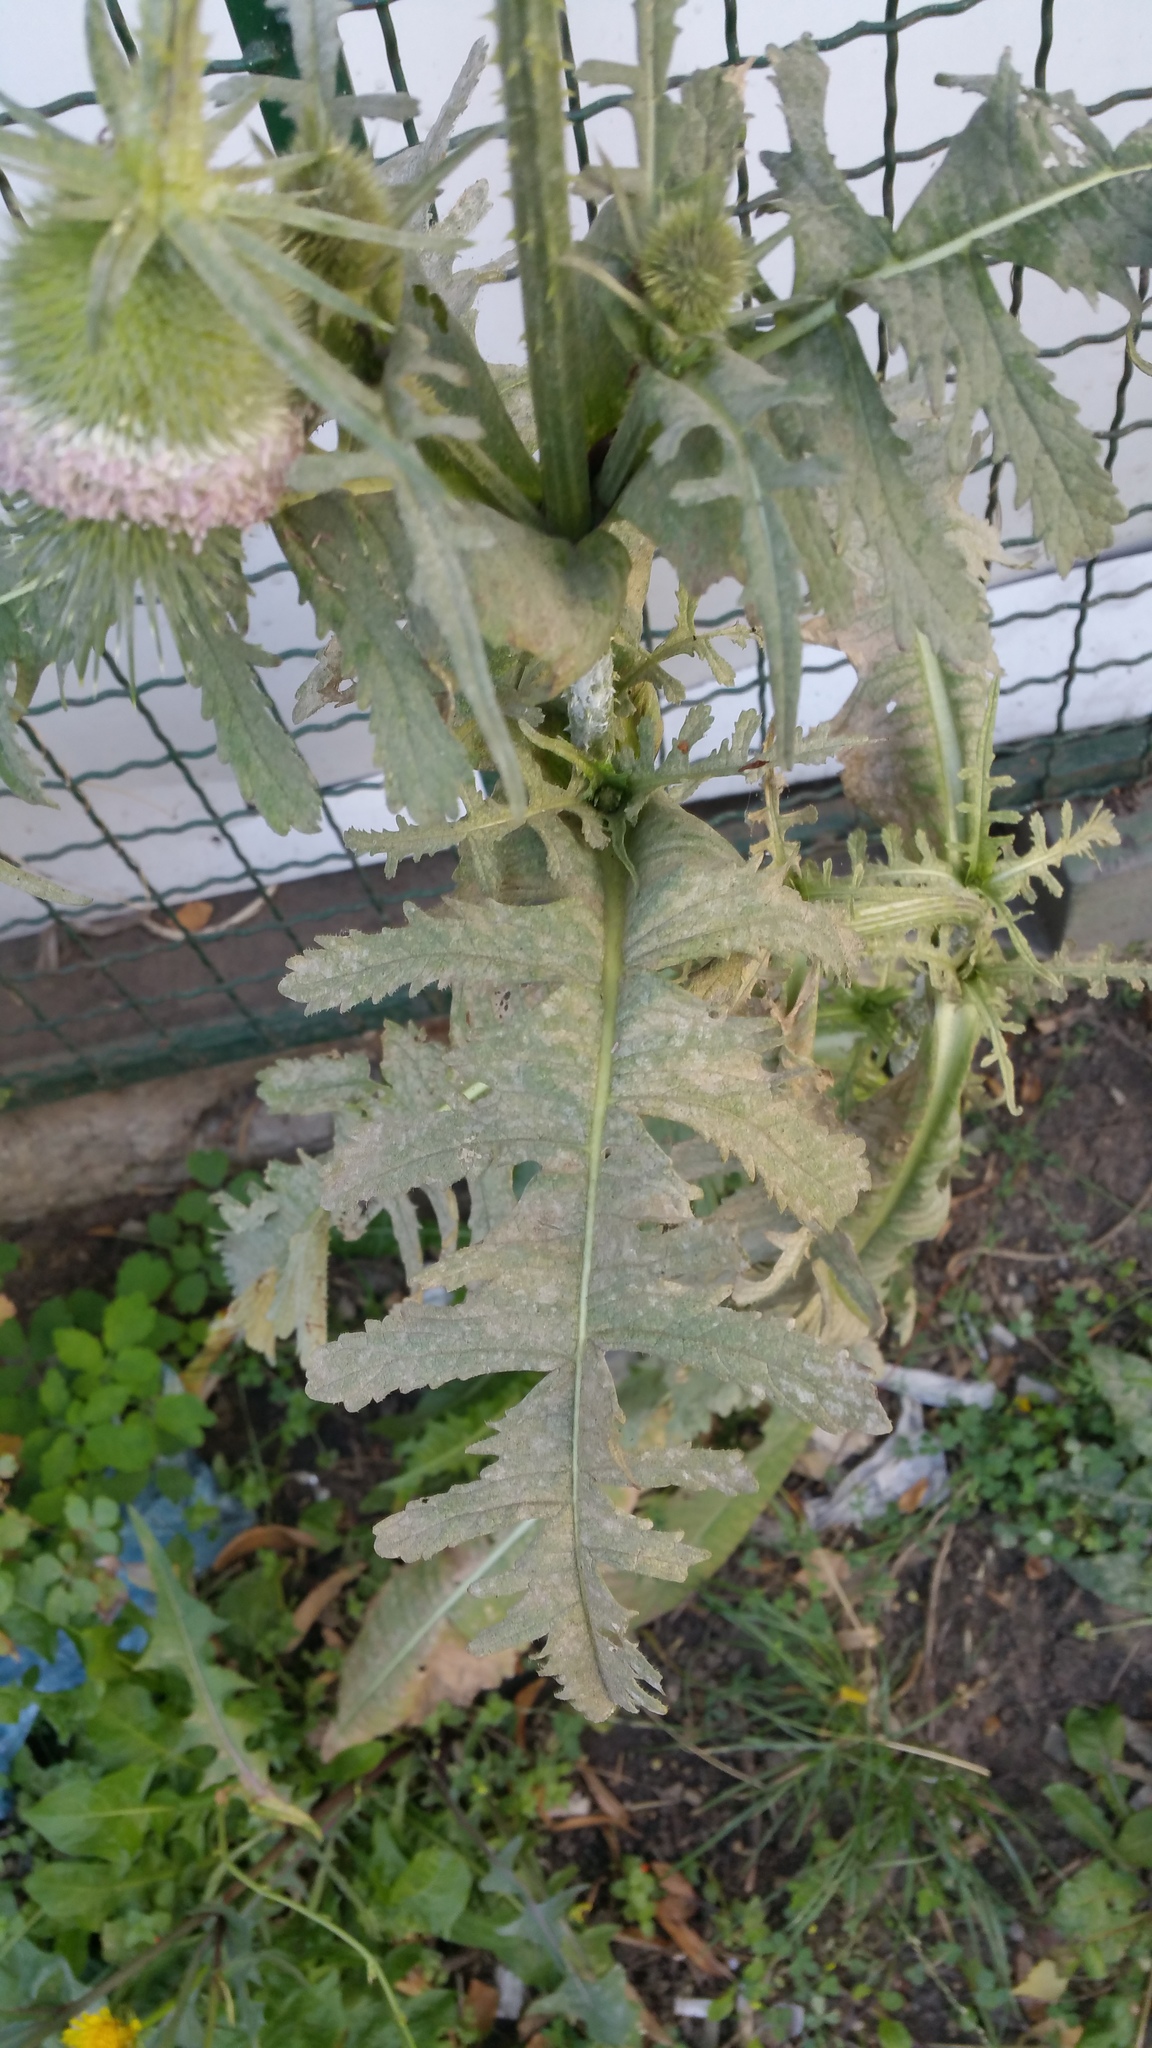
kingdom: Plantae
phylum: Tracheophyta
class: Magnoliopsida
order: Dipsacales
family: Caprifoliaceae
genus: Dipsacus
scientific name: Dipsacus laciniatus
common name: Cut-leaved teasel
